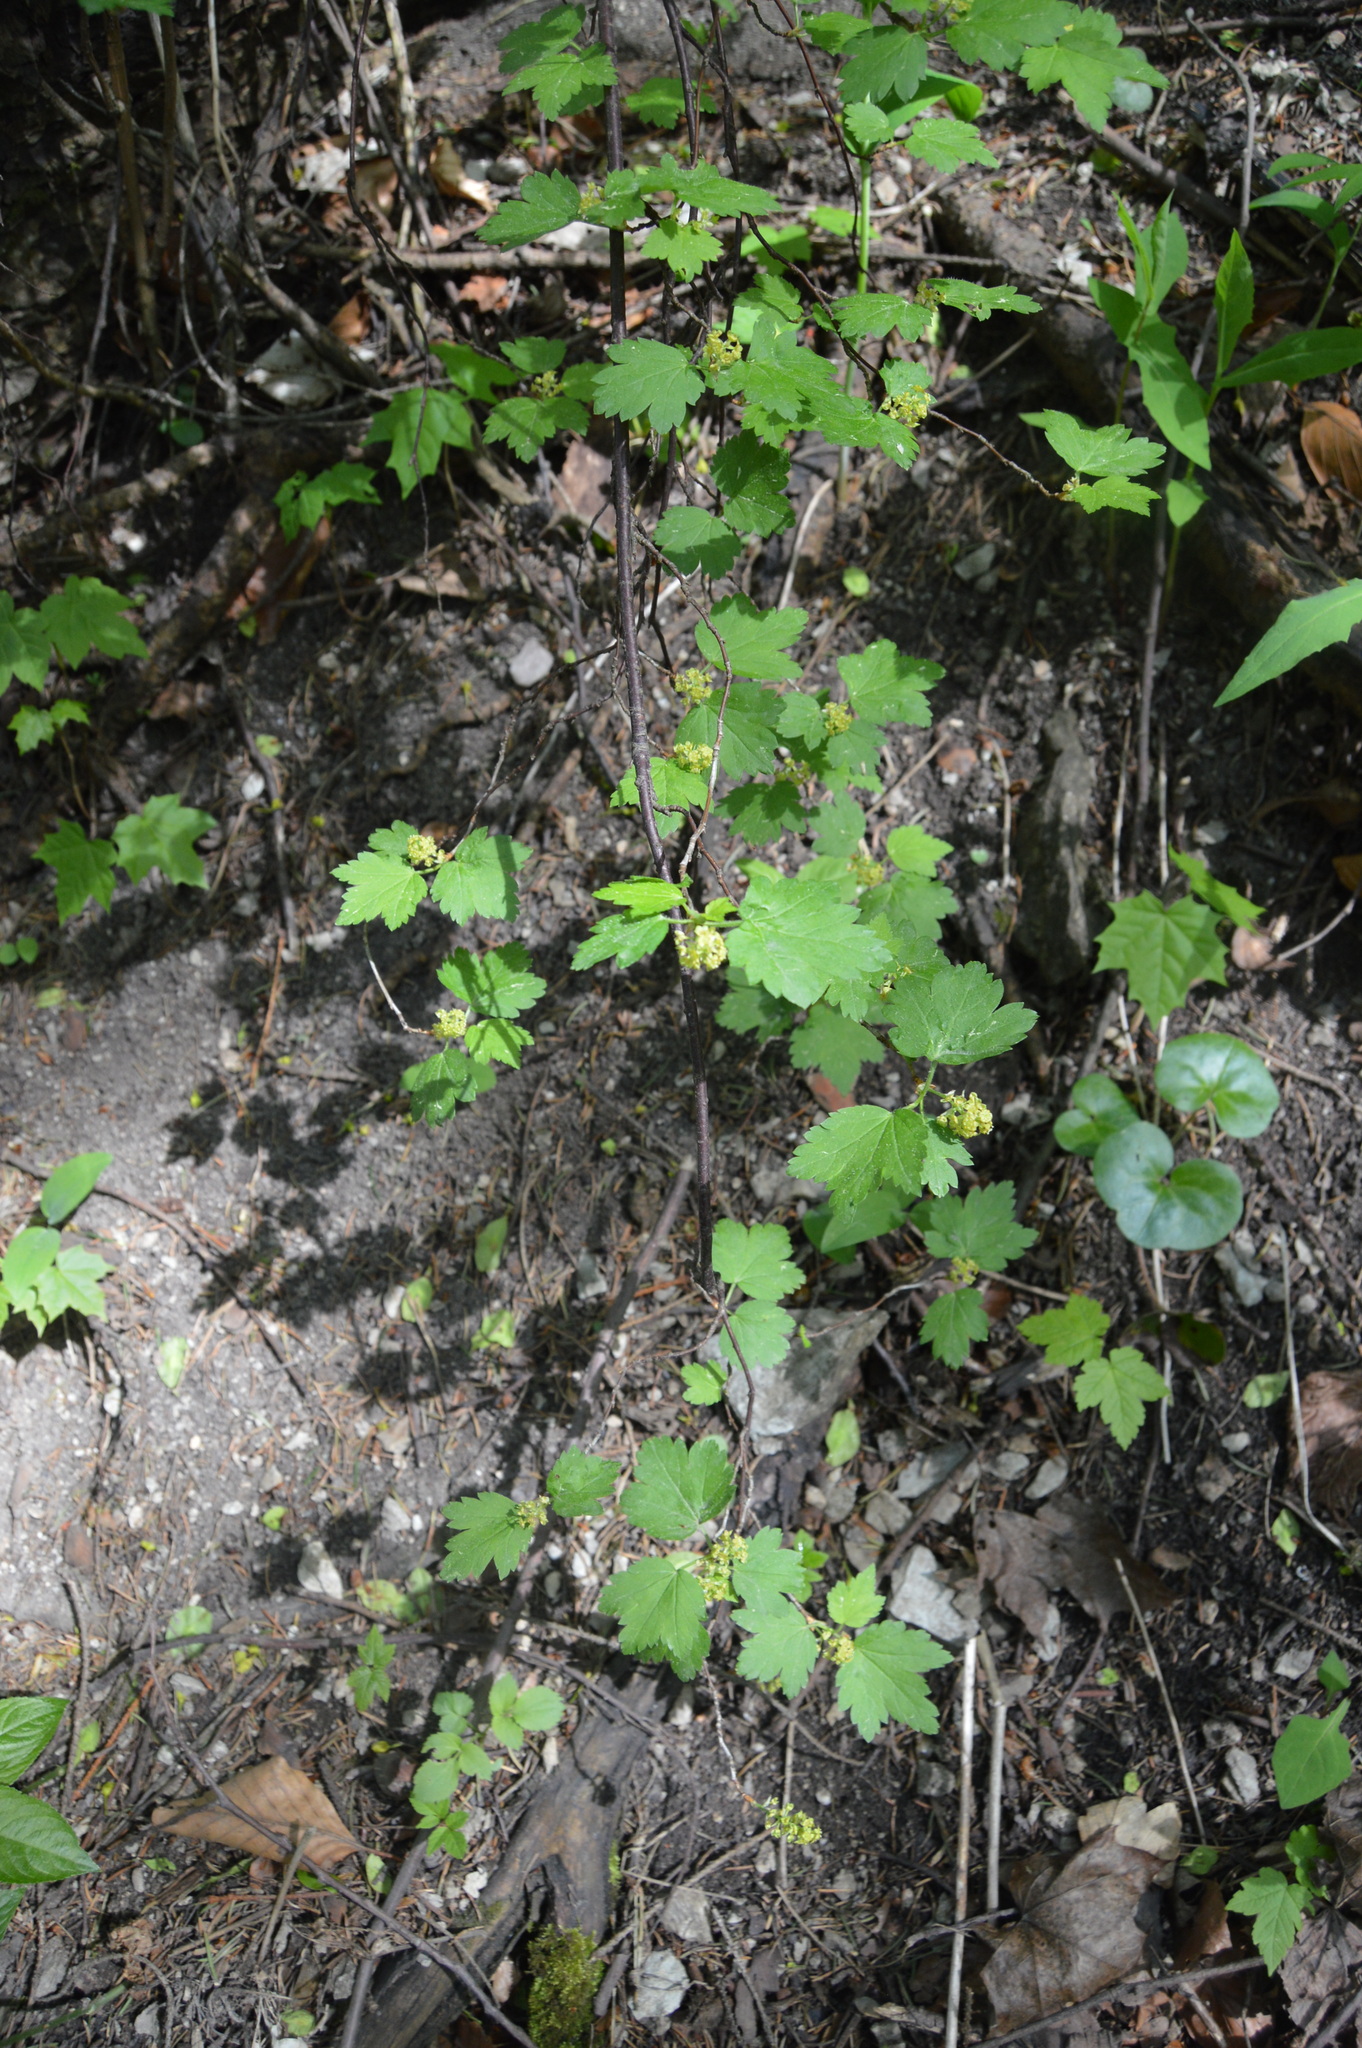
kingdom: Plantae
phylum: Tracheophyta
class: Magnoliopsida
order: Saxifragales
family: Grossulariaceae
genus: Ribes
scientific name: Ribes alpinum
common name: Alpine currant
